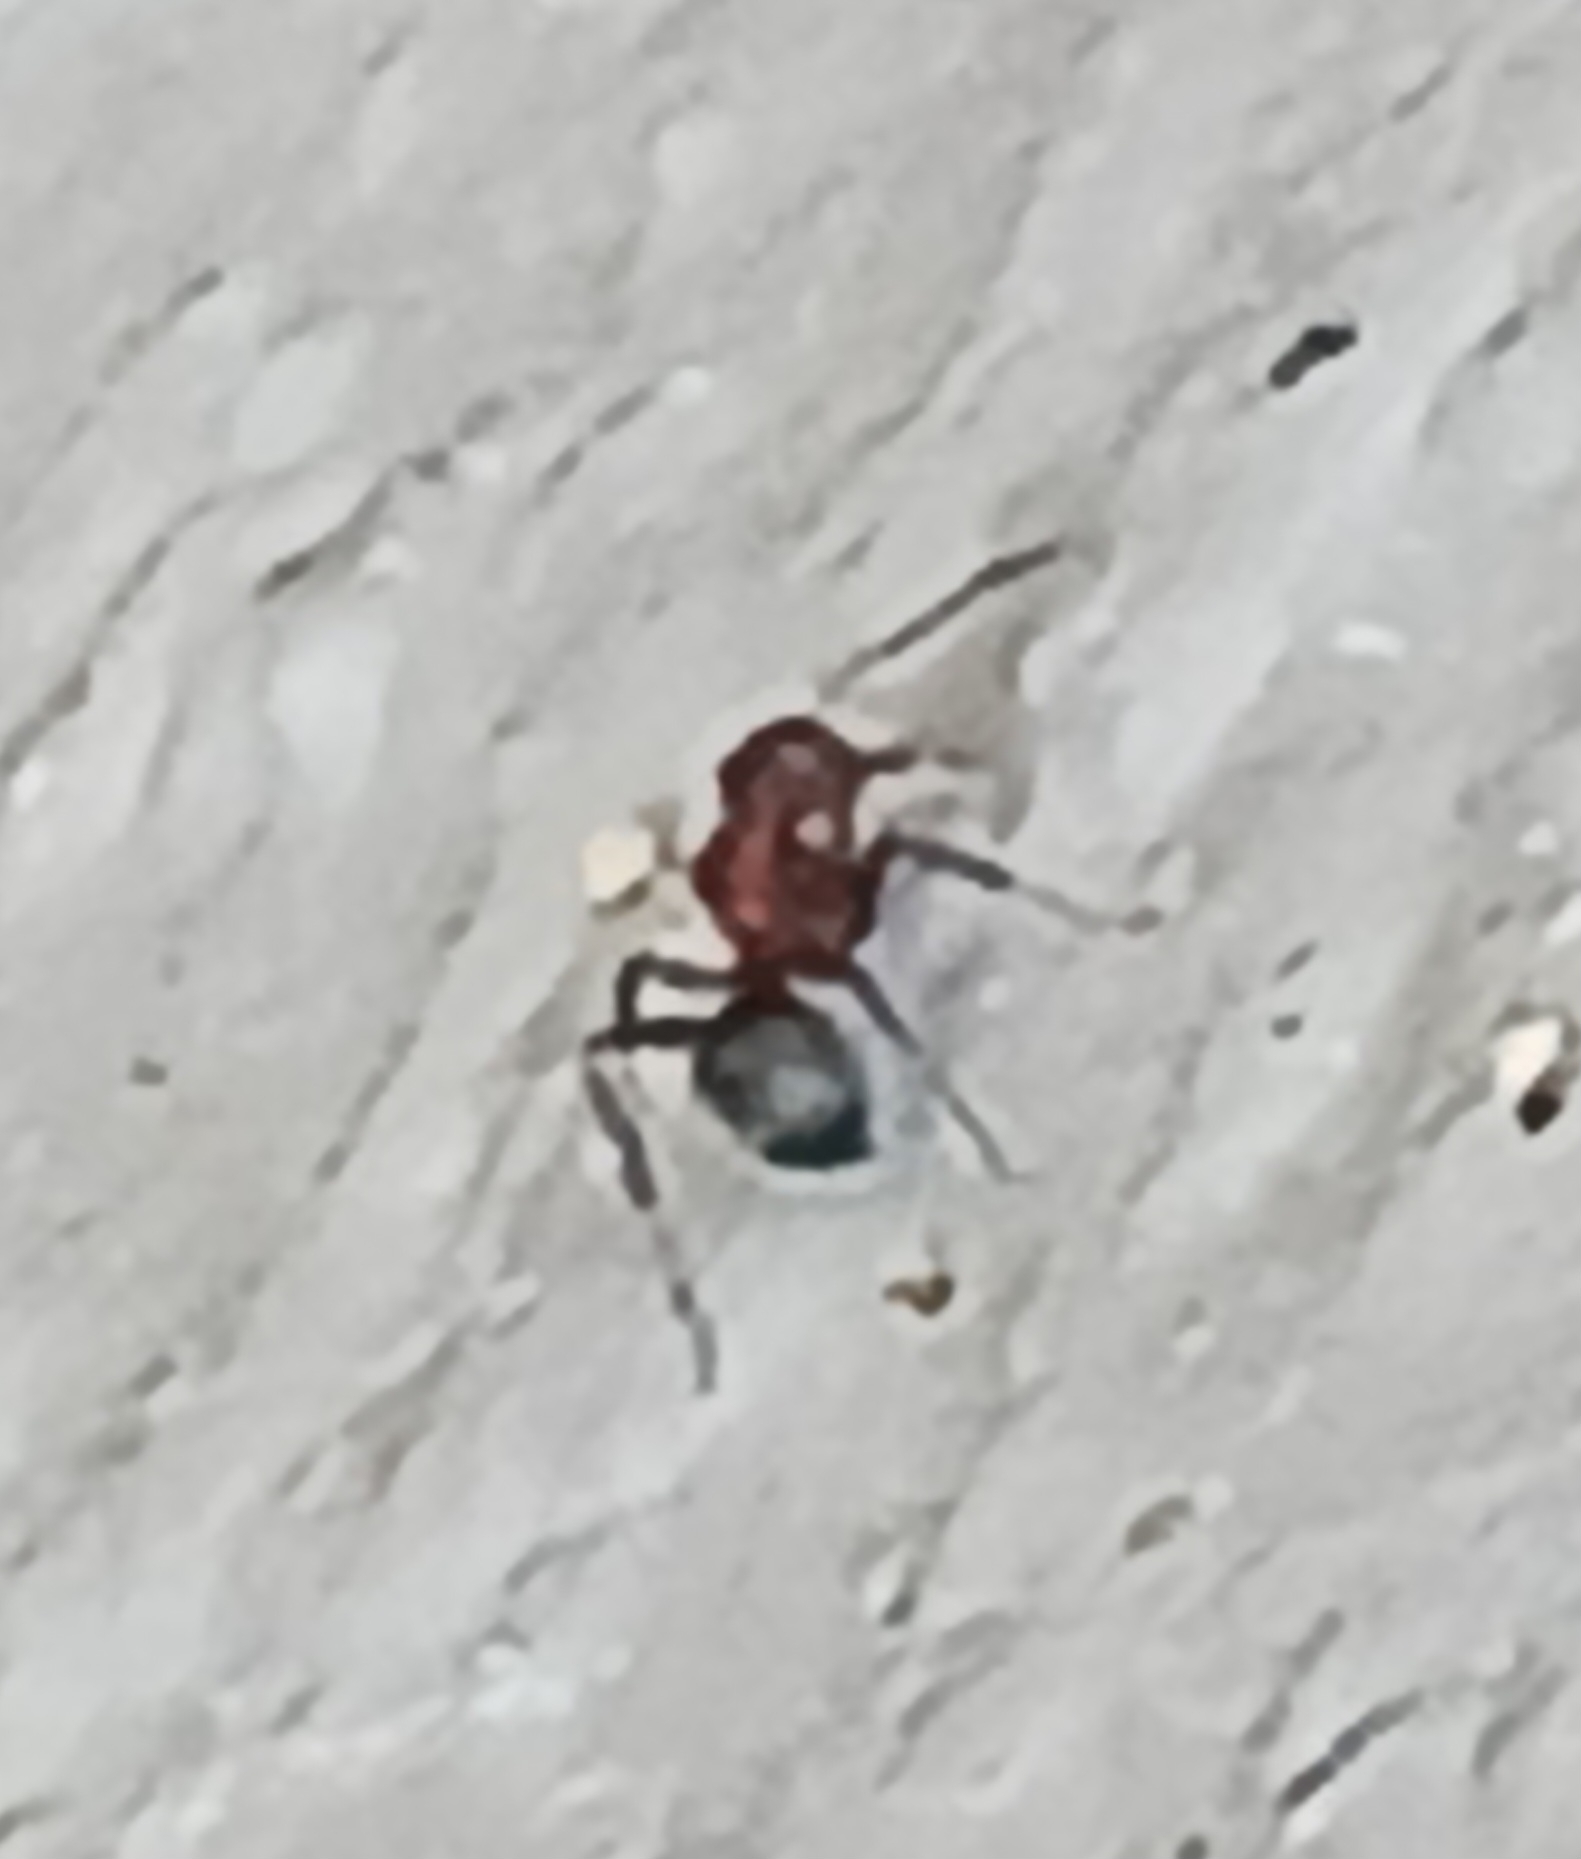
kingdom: Animalia
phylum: Arthropoda
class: Insecta
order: Hymenoptera
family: Formicidae
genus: Camponotus
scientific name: Camponotus planatus
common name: Compact carpenter ant
